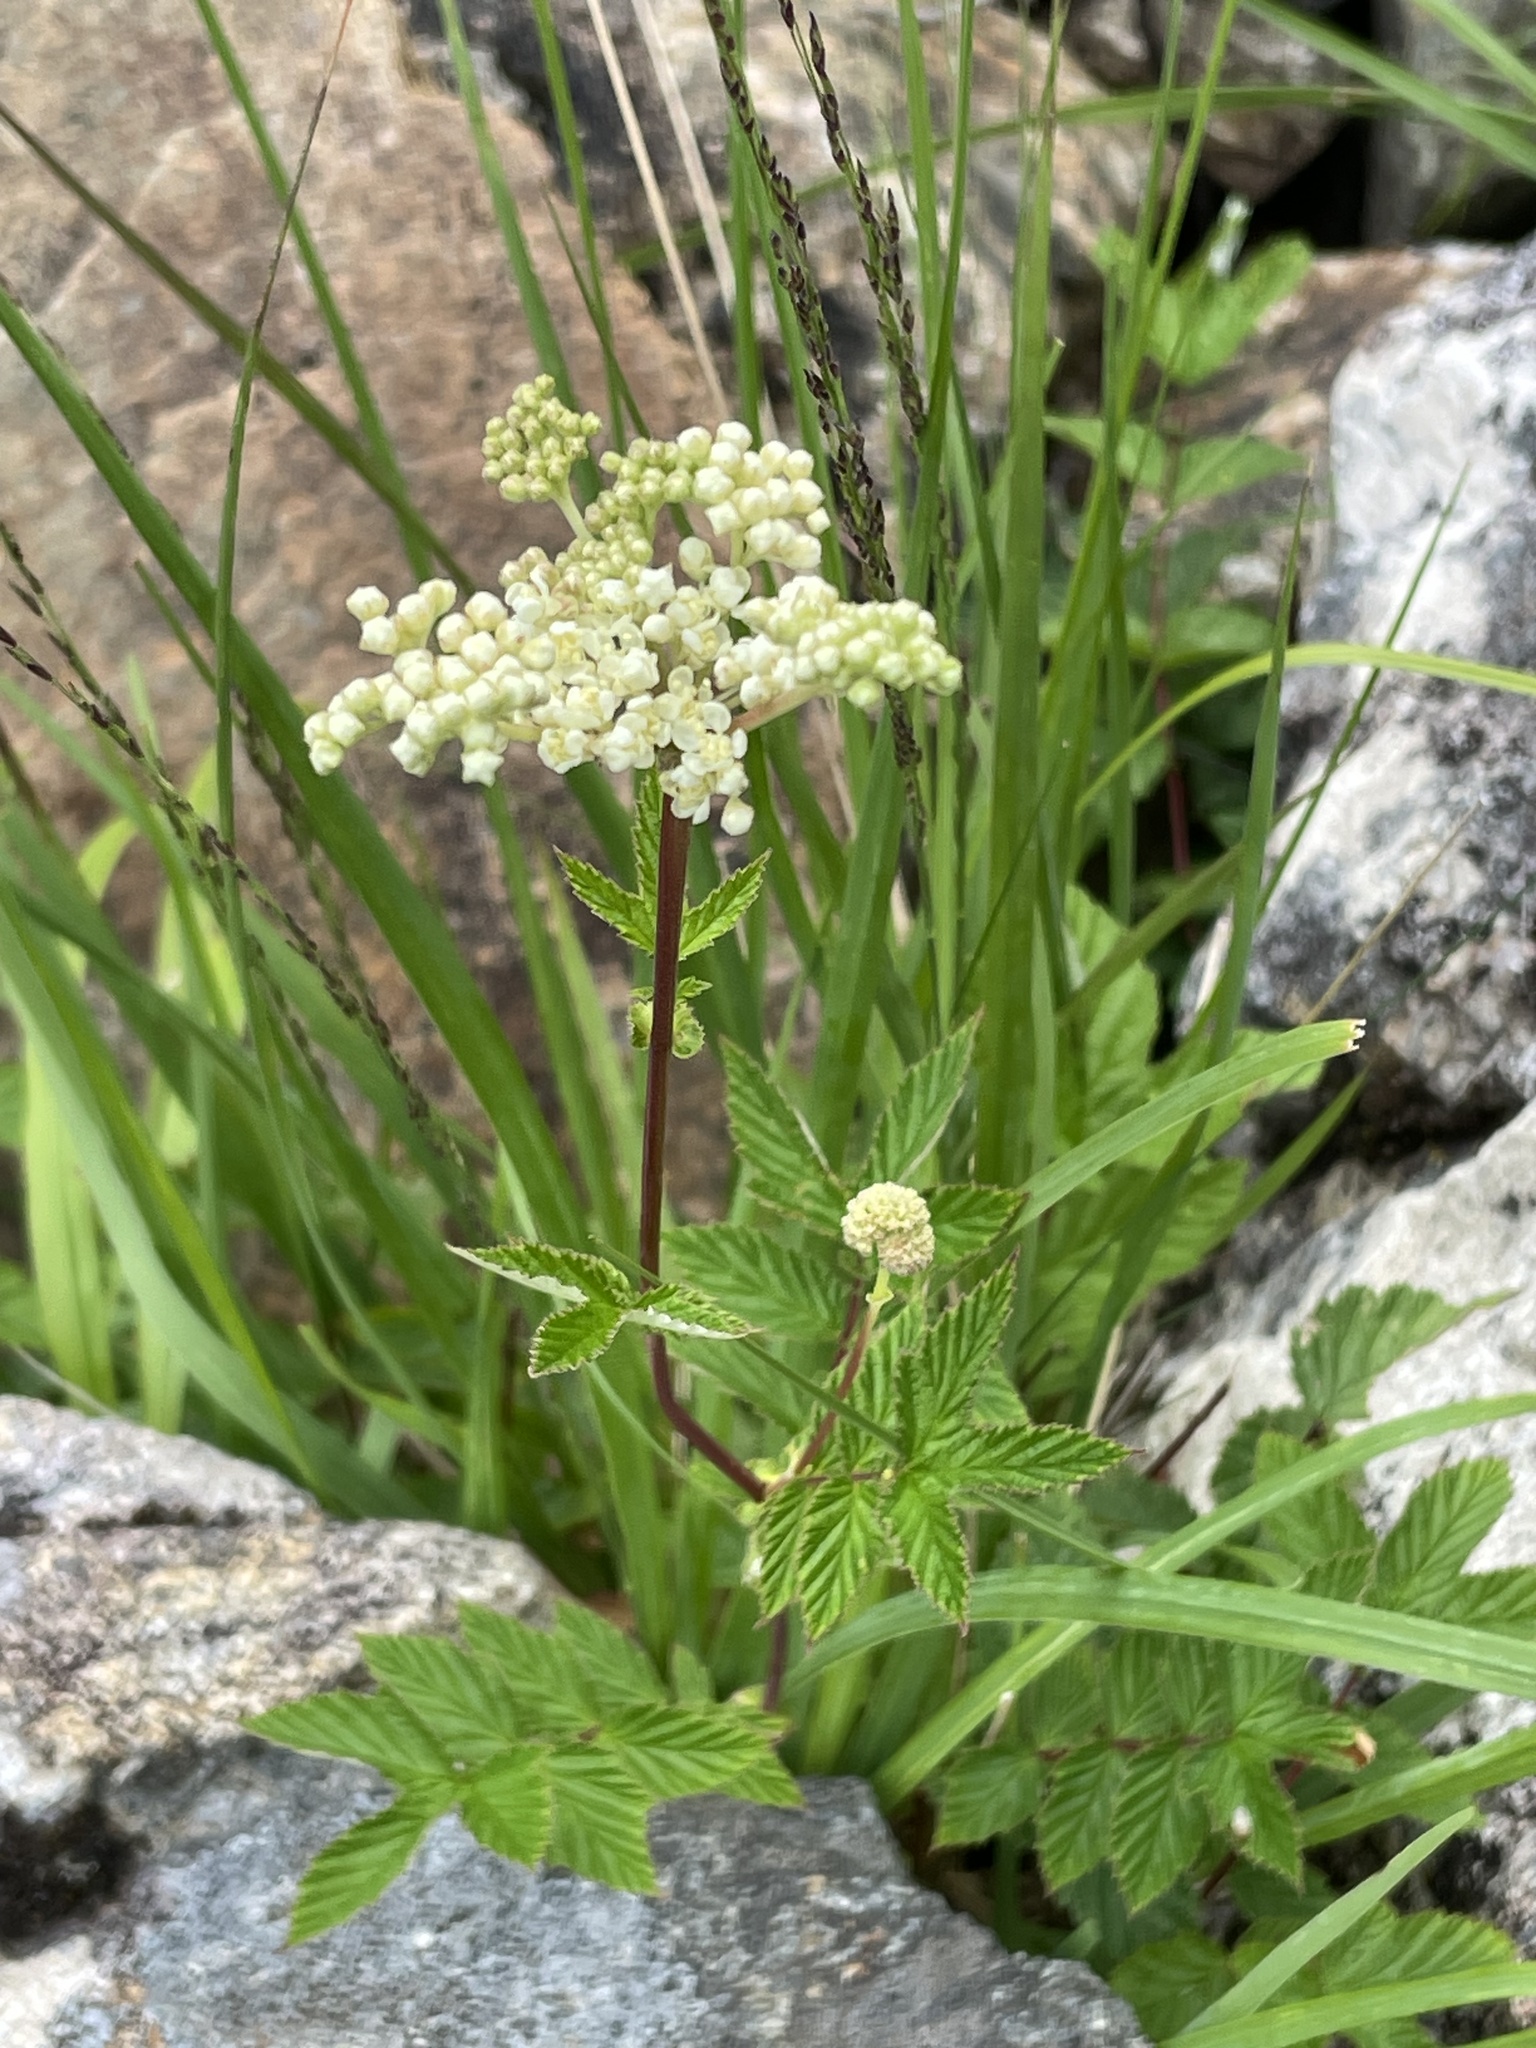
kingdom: Plantae
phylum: Tracheophyta
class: Magnoliopsida
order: Rosales
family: Rosaceae
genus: Filipendula
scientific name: Filipendula ulmaria
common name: Meadowsweet
